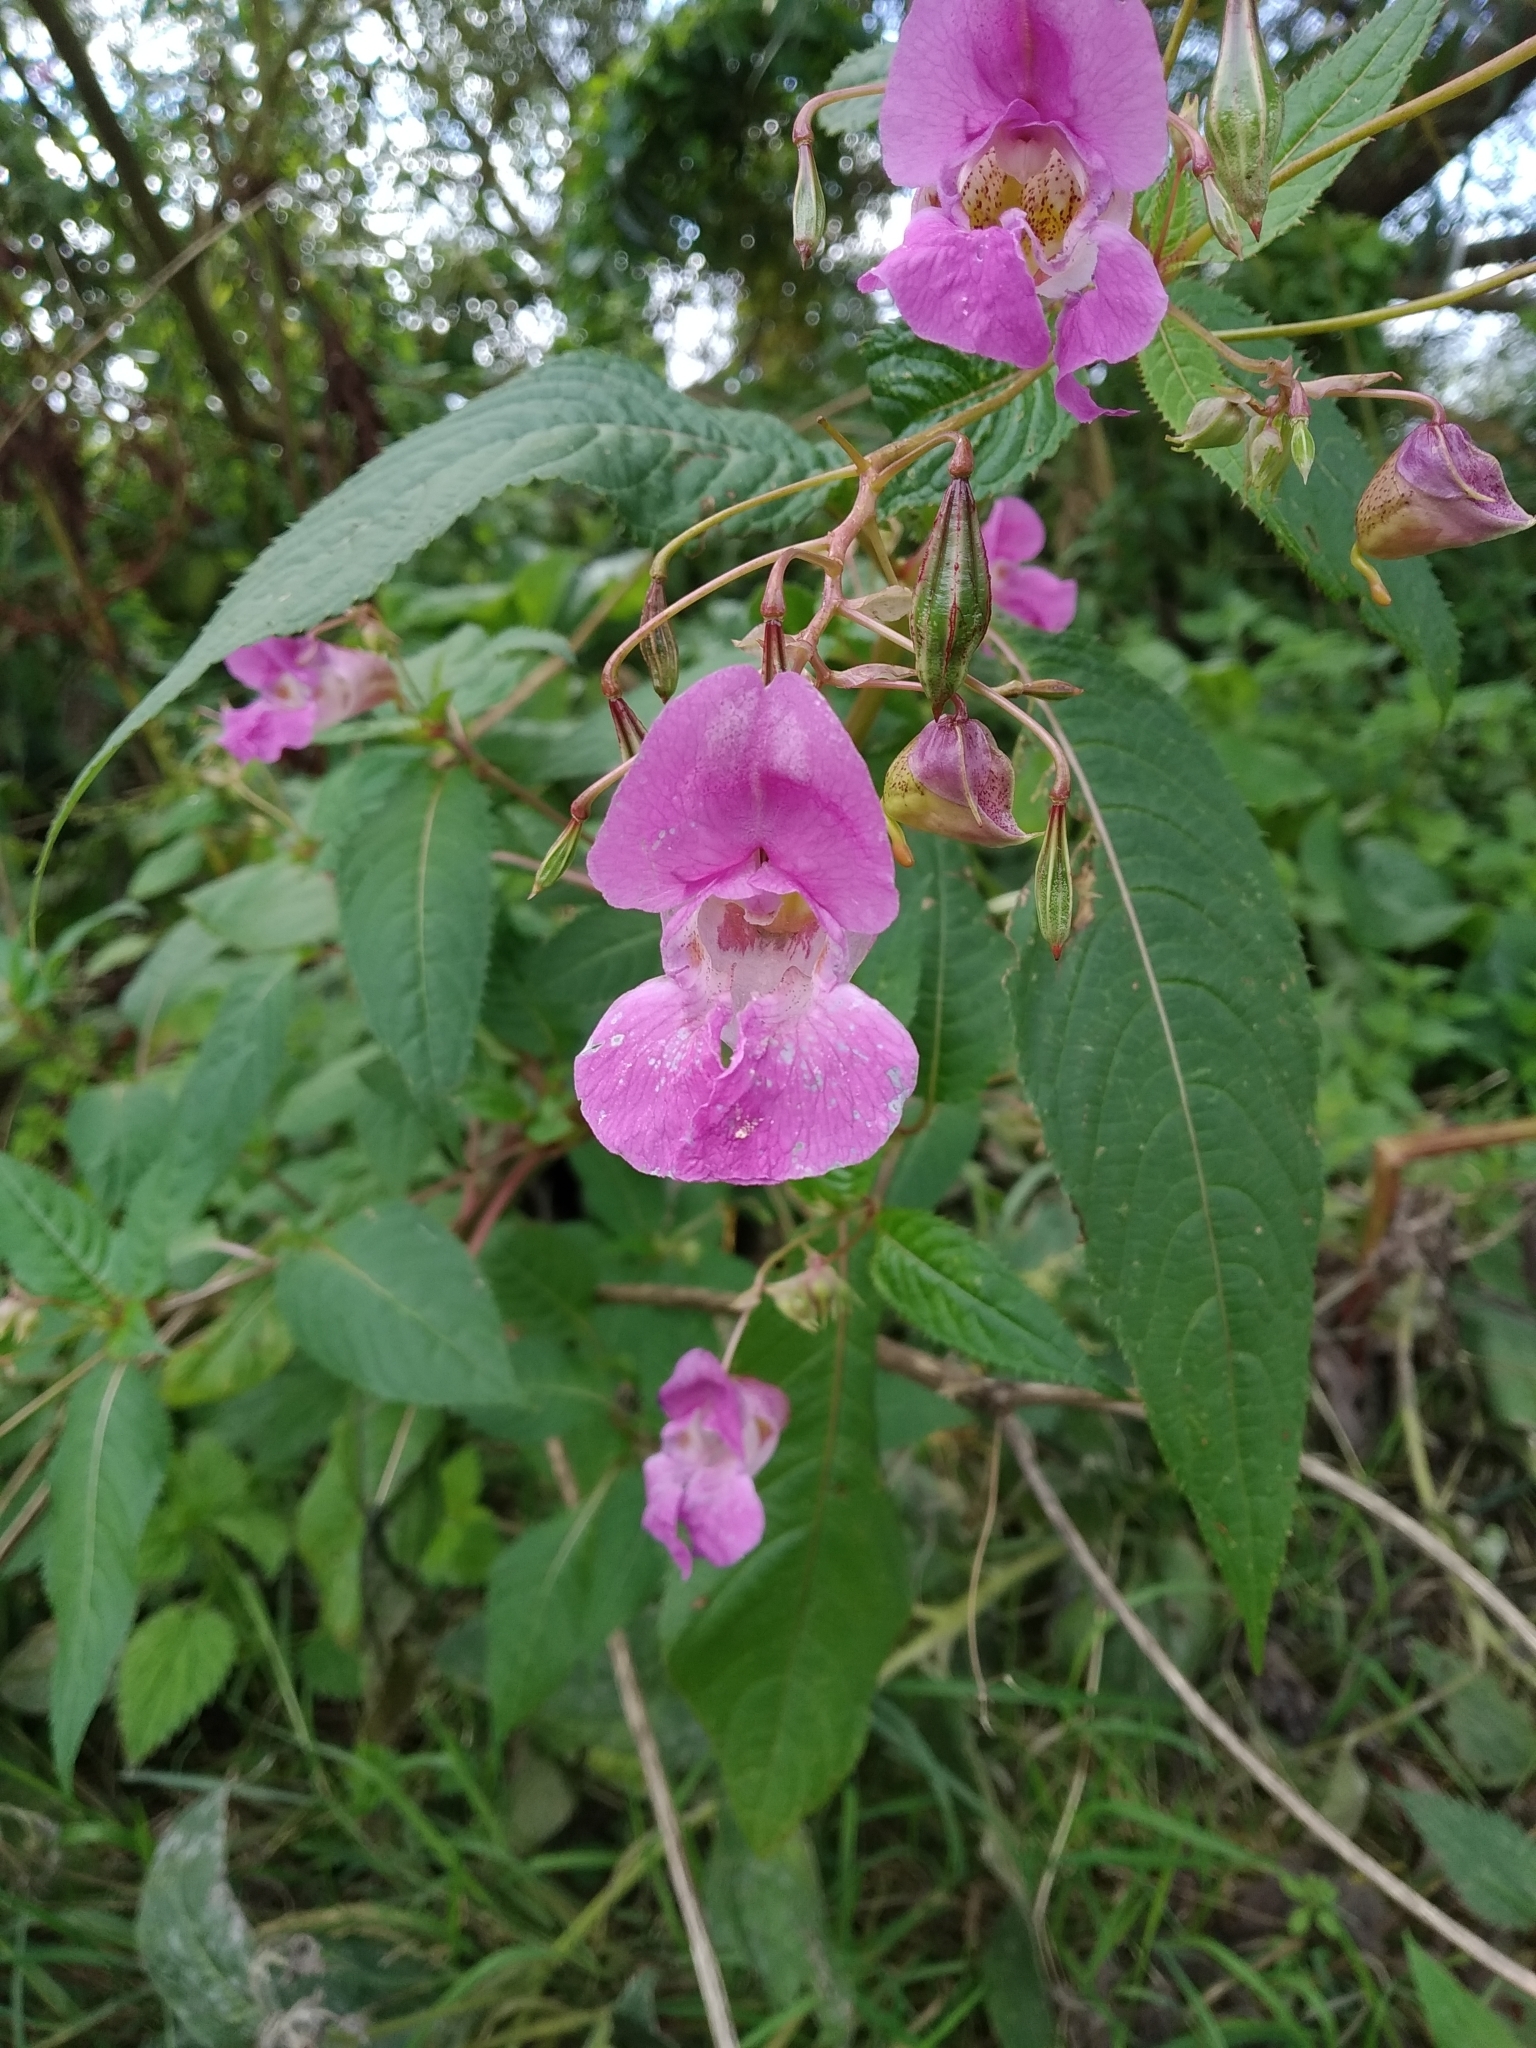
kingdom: Plantae
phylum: Tracheophyta
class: Magnoliopsida
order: Ericales
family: Balsaminaceae
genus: Impatiens
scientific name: Impatiens glandulifera
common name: Himalayan balsam
